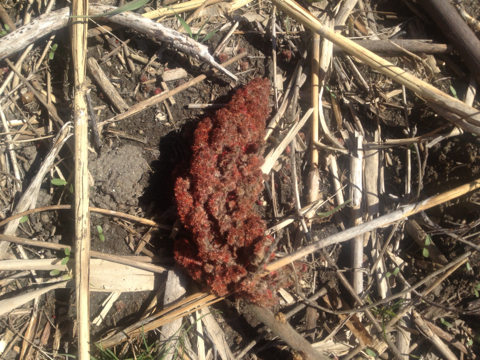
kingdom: Plantae
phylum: Tracheophyta
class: Magnoliopsida
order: Sapindales
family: Anacardiaceae
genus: Rhus
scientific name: Rhus typhina
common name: Staghorn sumac
